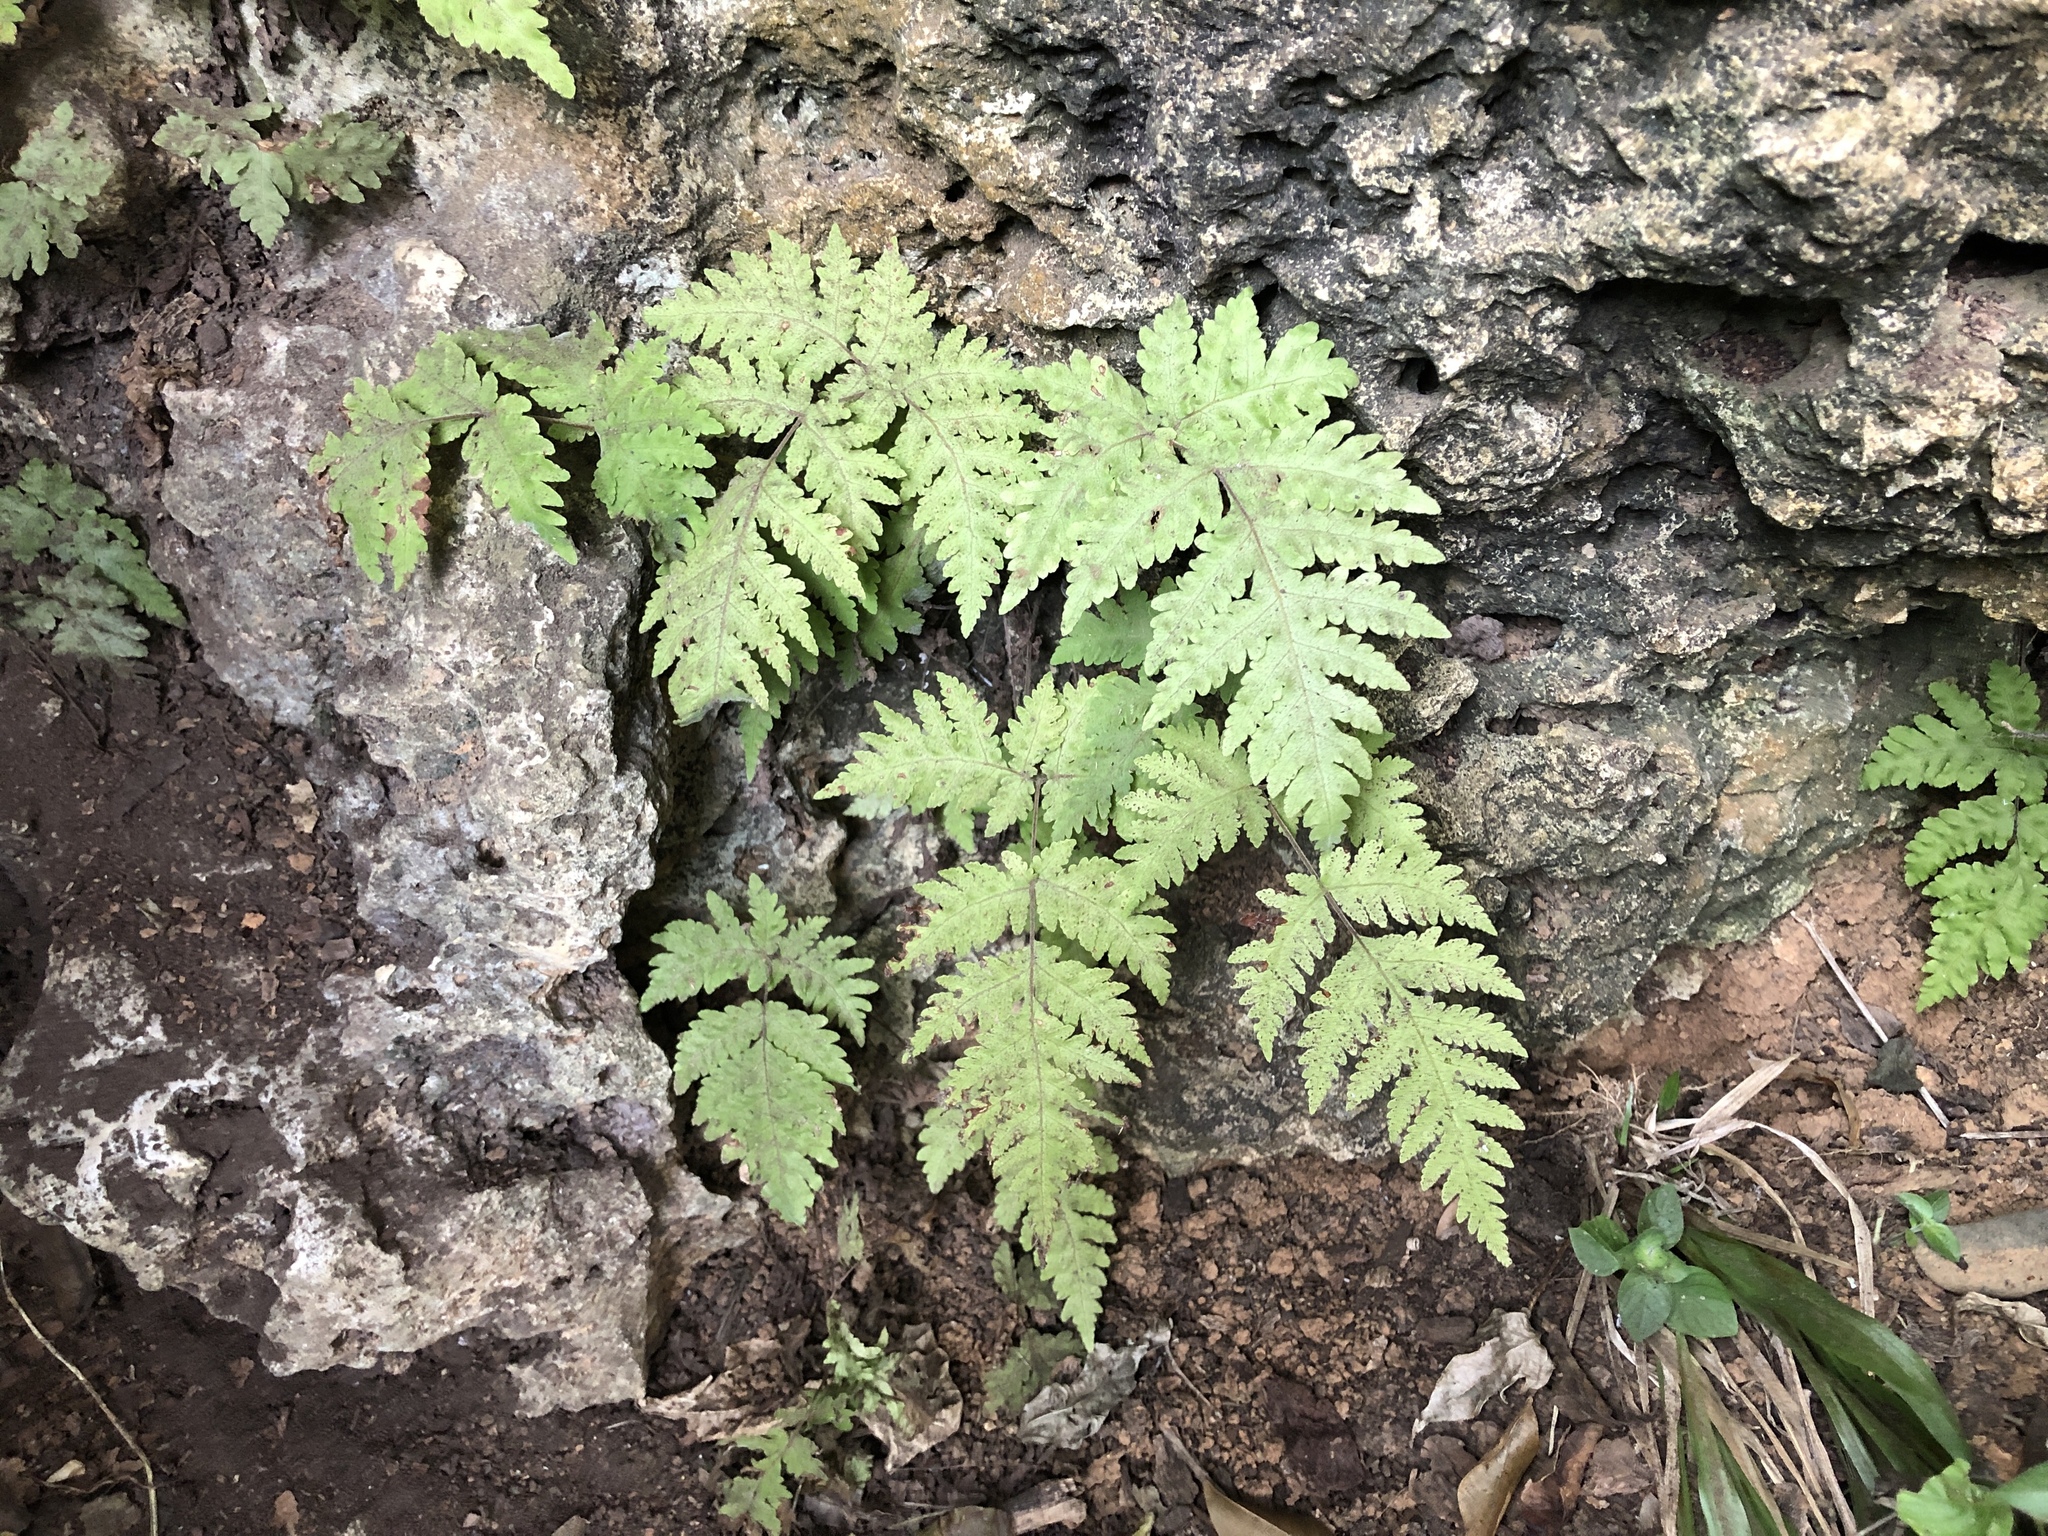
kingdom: Plantae
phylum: Tracheophyta
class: Polypodiopsida
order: Polypodiales
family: Tectariaceae
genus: Tectaria
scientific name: Tectaria membranacea
